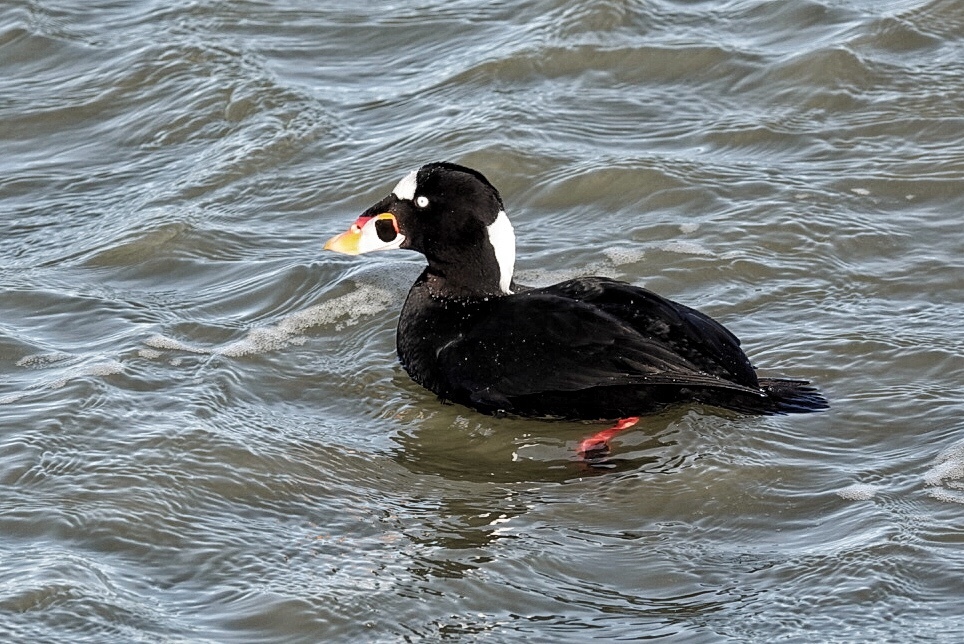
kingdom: Animalia
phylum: Chordata
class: Aves
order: Anseriformes
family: Anatidae
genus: Melanitta
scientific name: Melanitta perspicillata
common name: Surf scoter
